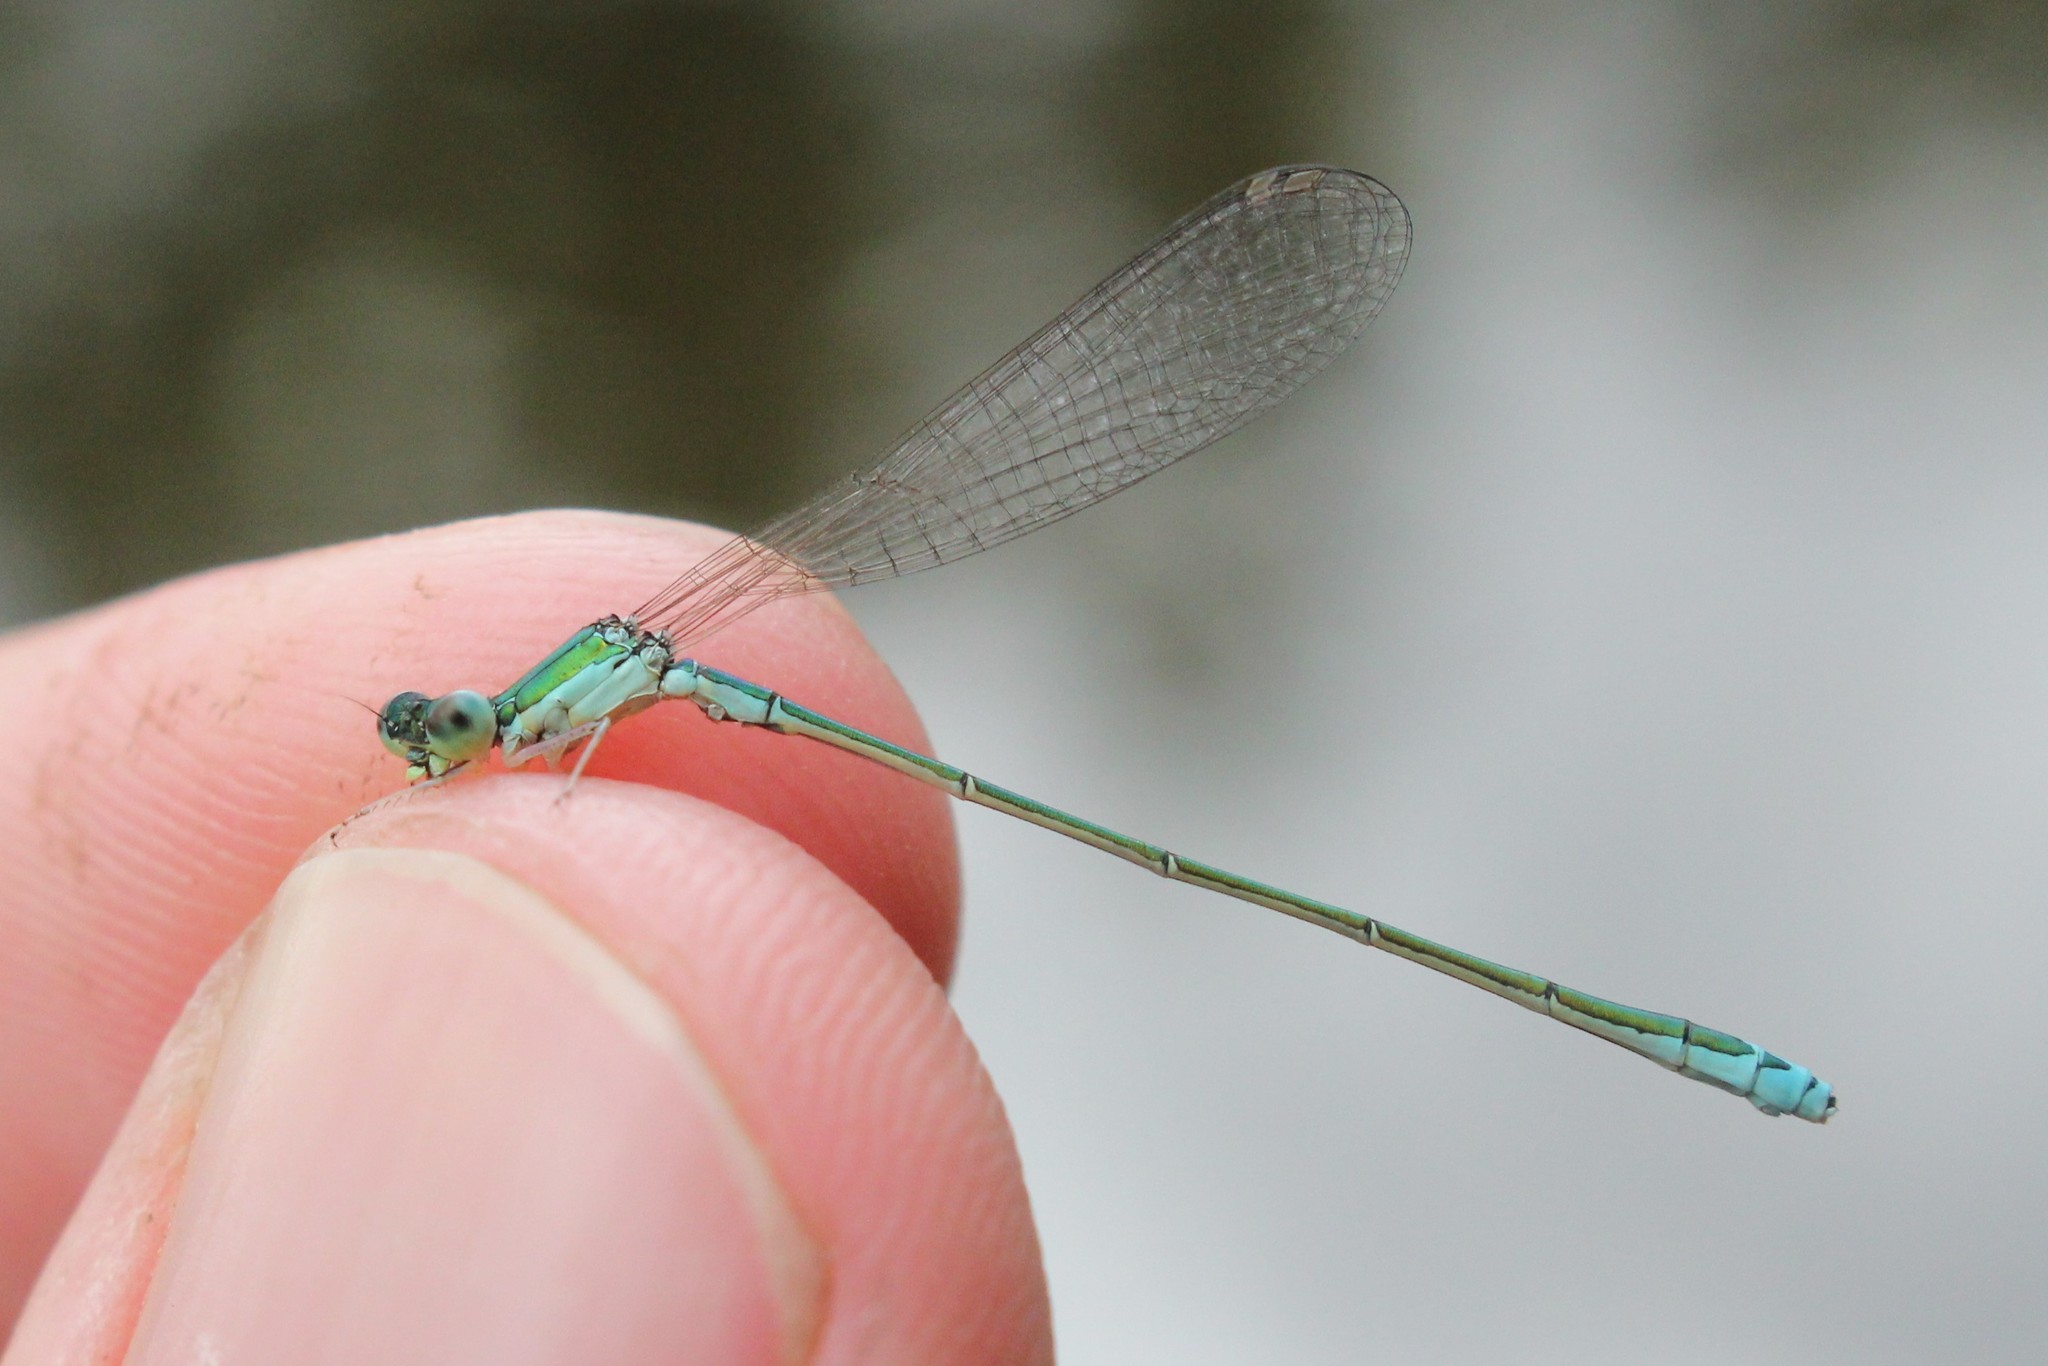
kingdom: Animalia
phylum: Arthropoda
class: Insecta
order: Odonata
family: Coenagrionidae
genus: Nehalennia
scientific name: Nehalennia irene
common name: Sedge sprite
